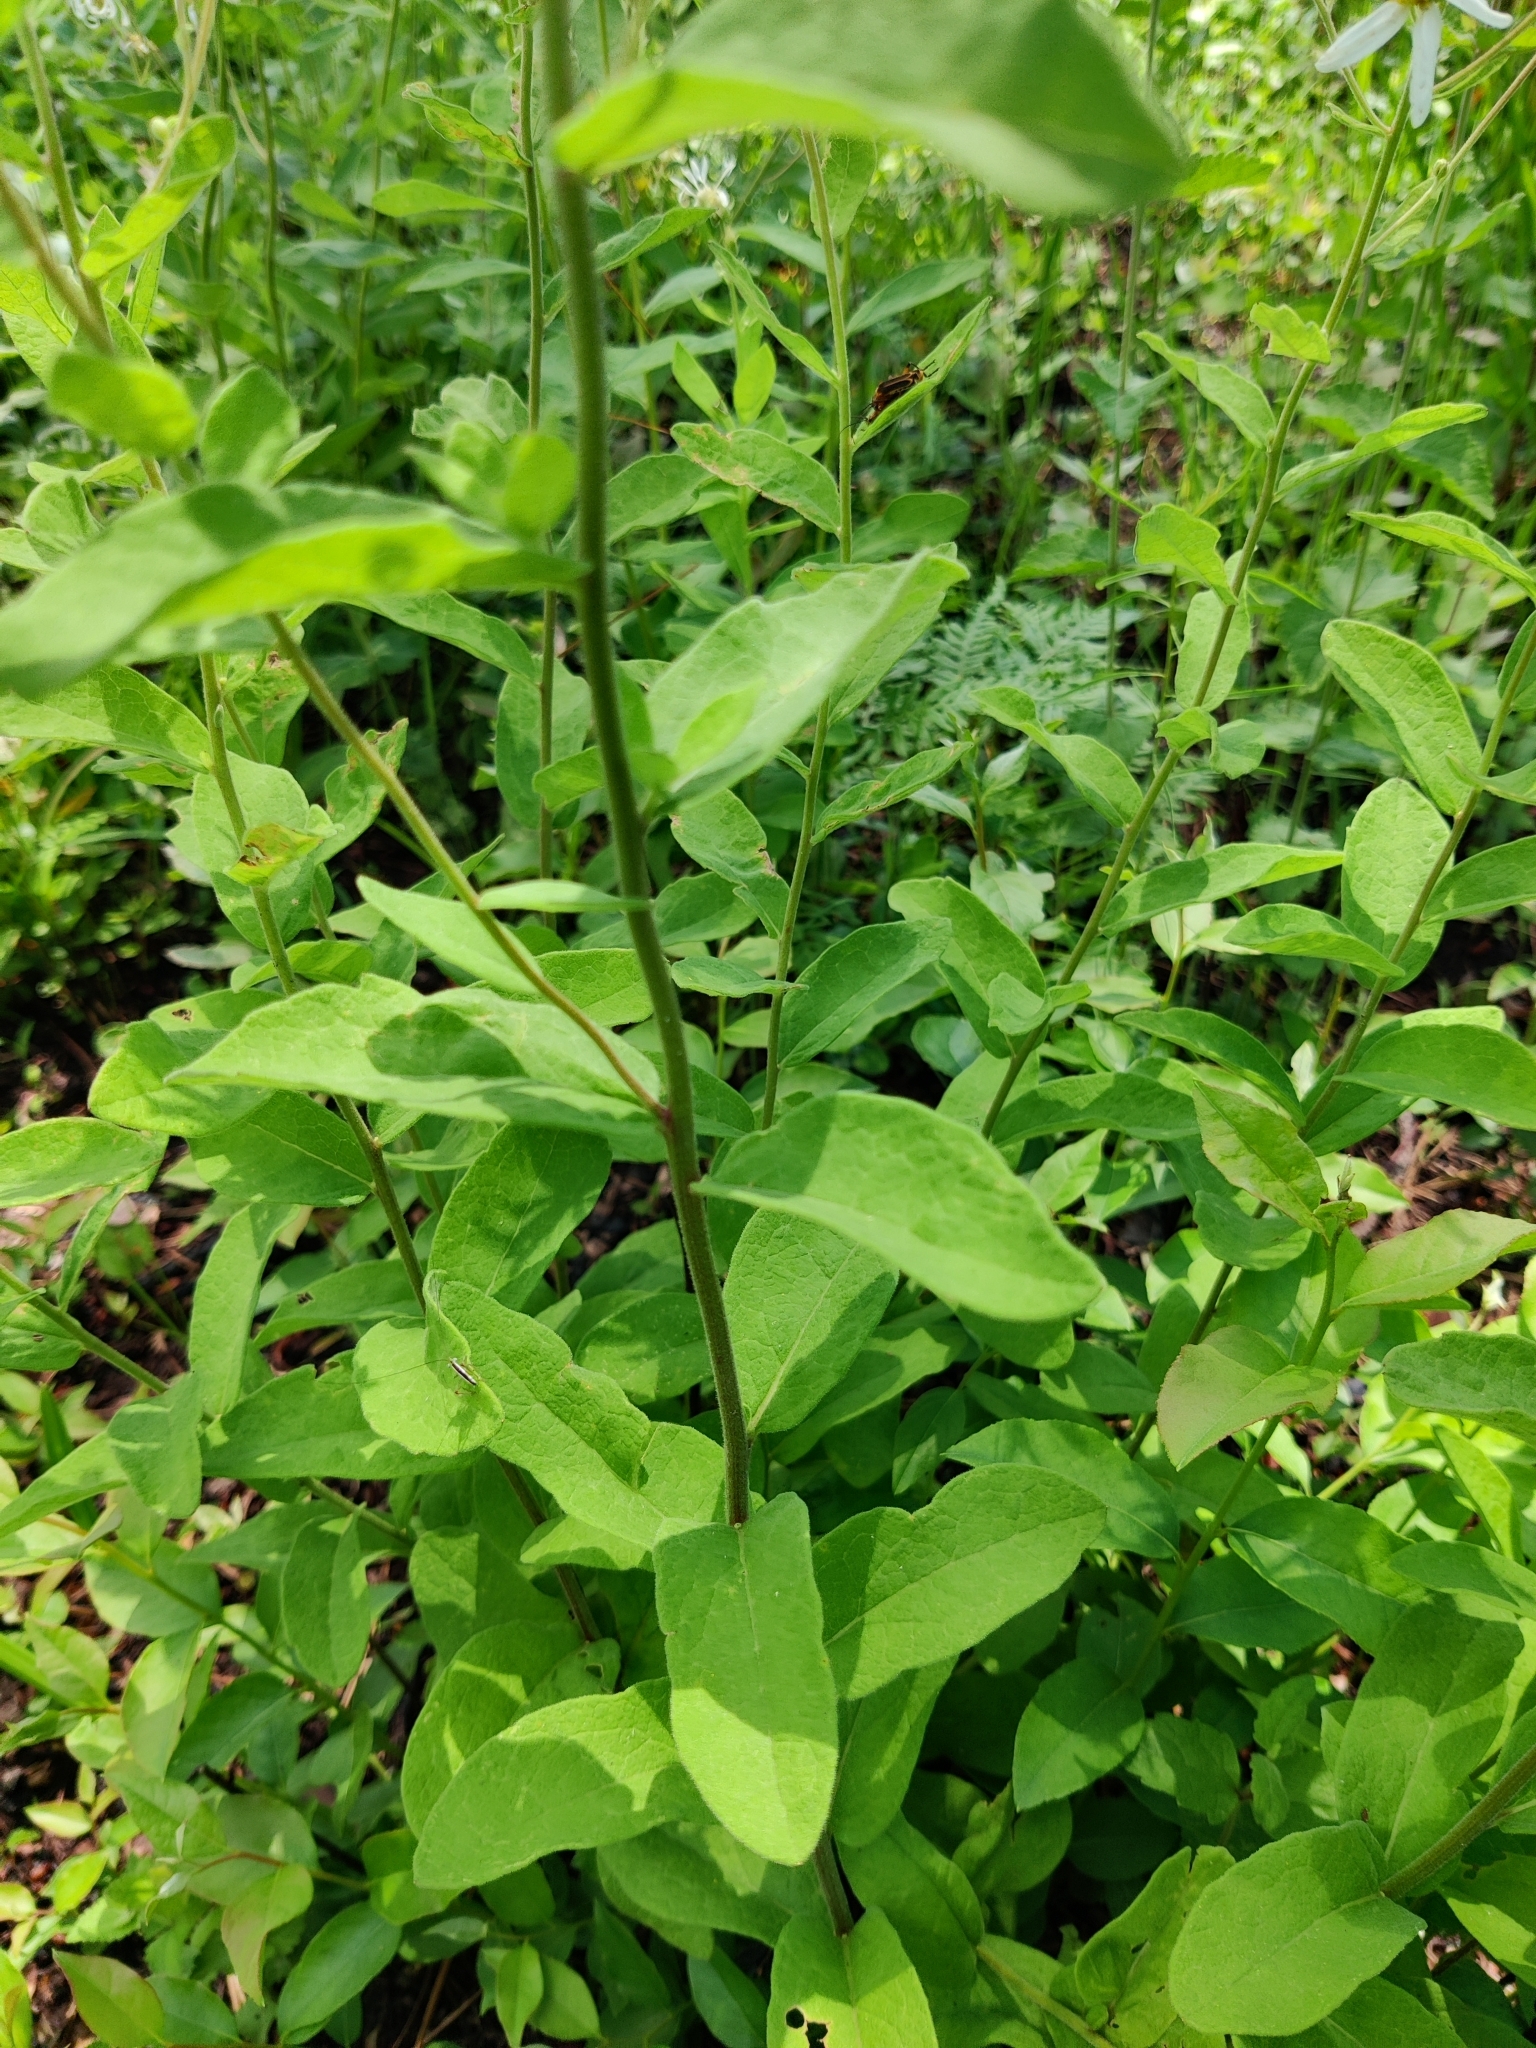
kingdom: Plantae
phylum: Tracheophyta
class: Magnoliopsida
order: Asterales
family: Asteraceae
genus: Oclemena
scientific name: Oclemena reticulata
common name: Pinebarren aster
